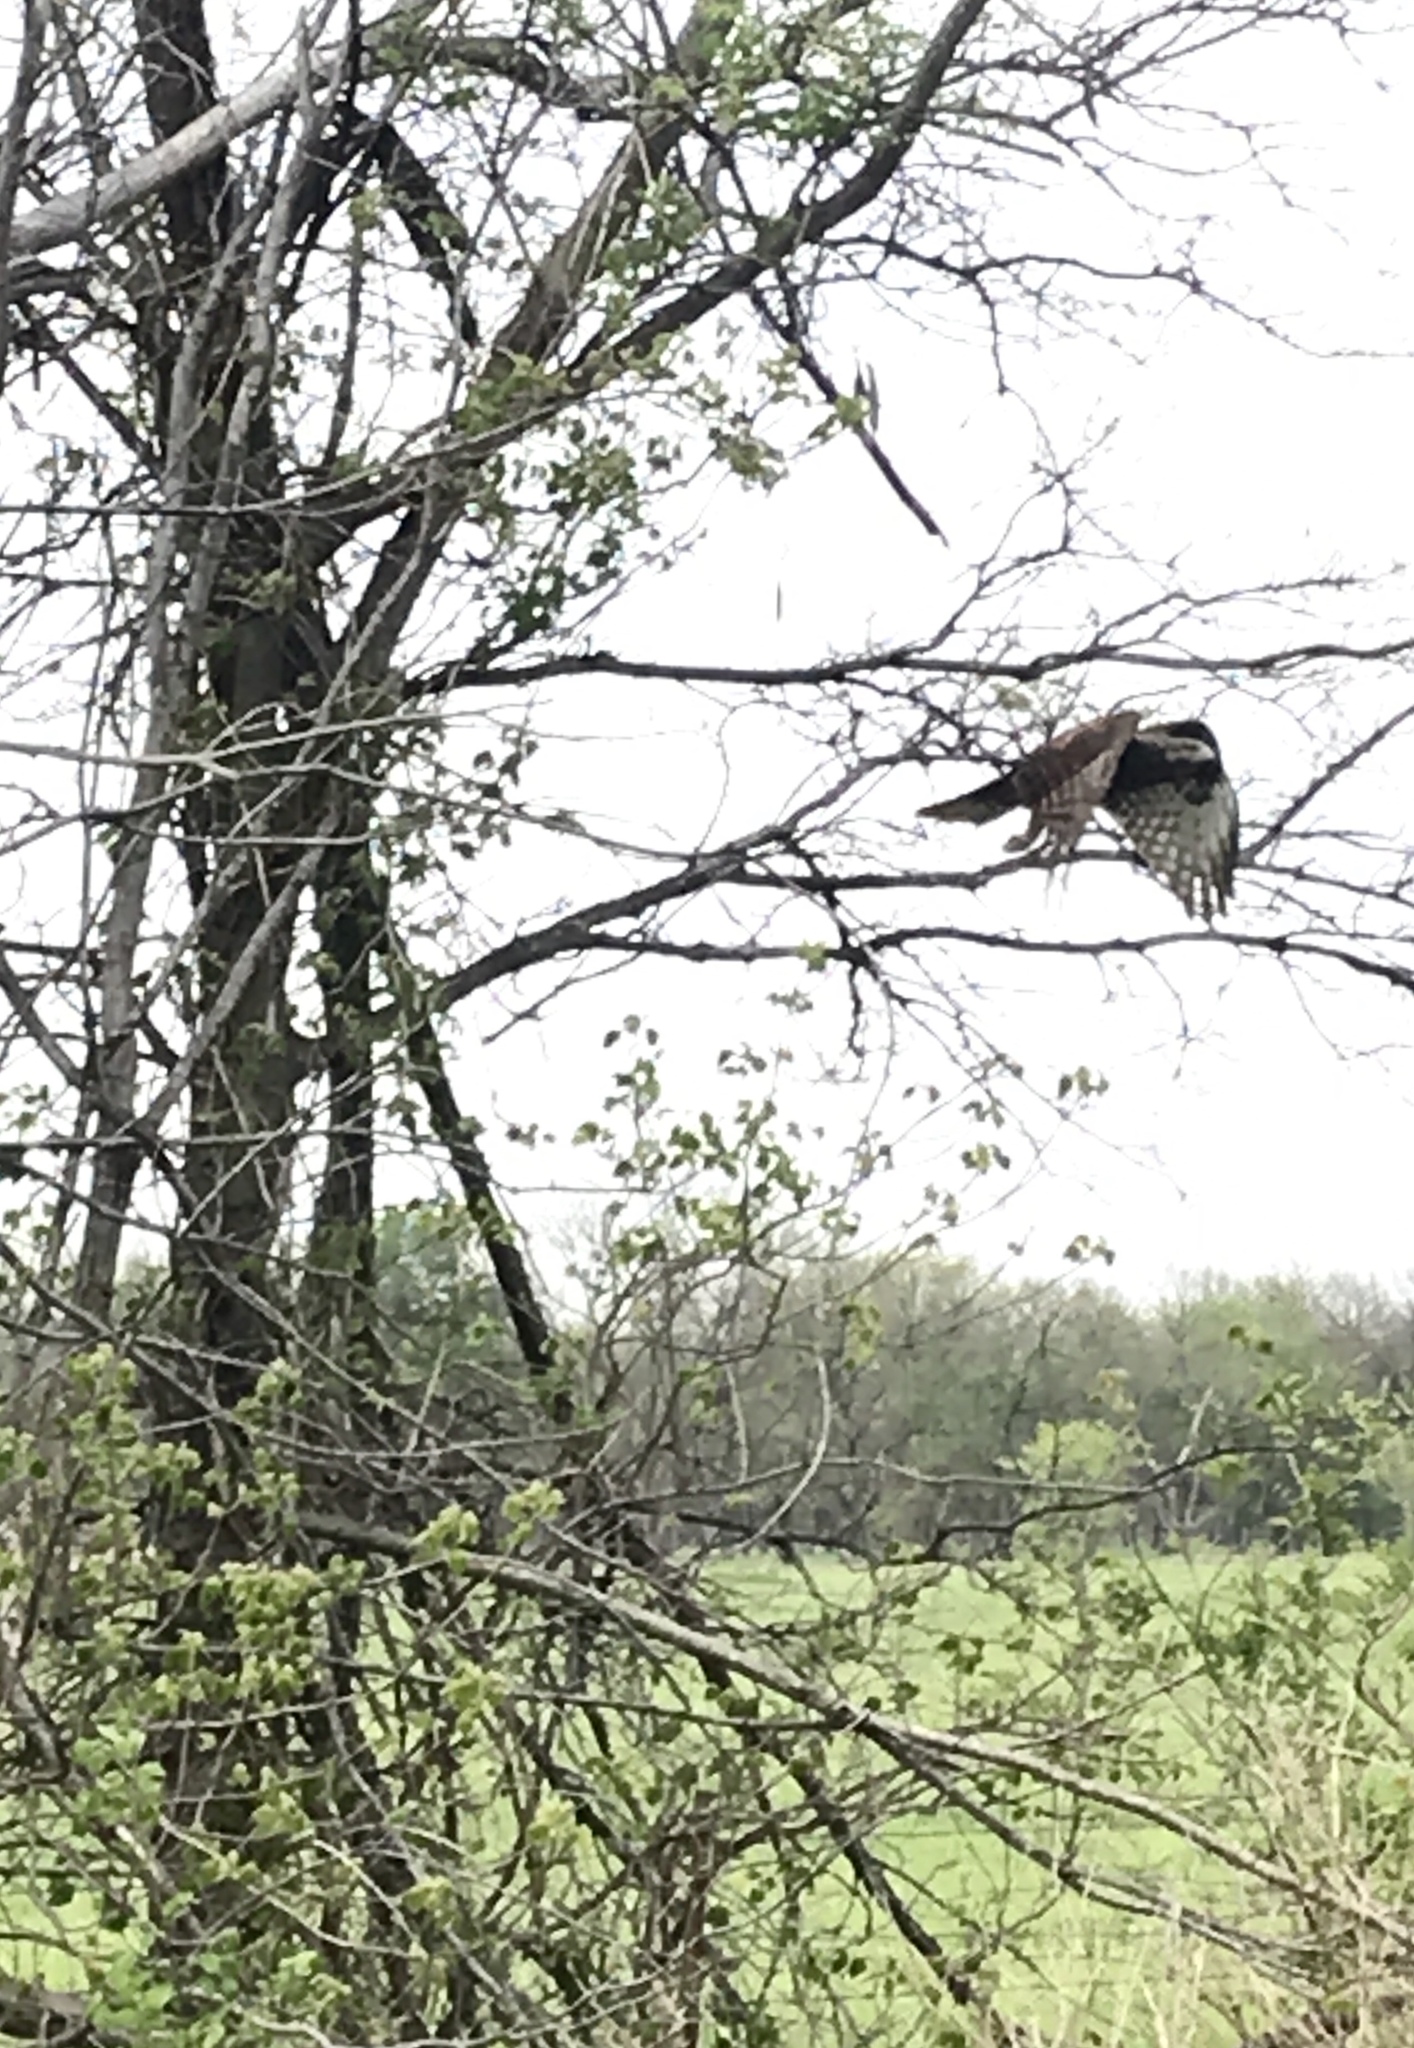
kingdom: Animalia
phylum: Chordata
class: Aves
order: Accipitriformes
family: Accipitridae
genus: Buteo
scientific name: Buteo jamaicensis
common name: Red-tailed hawk
